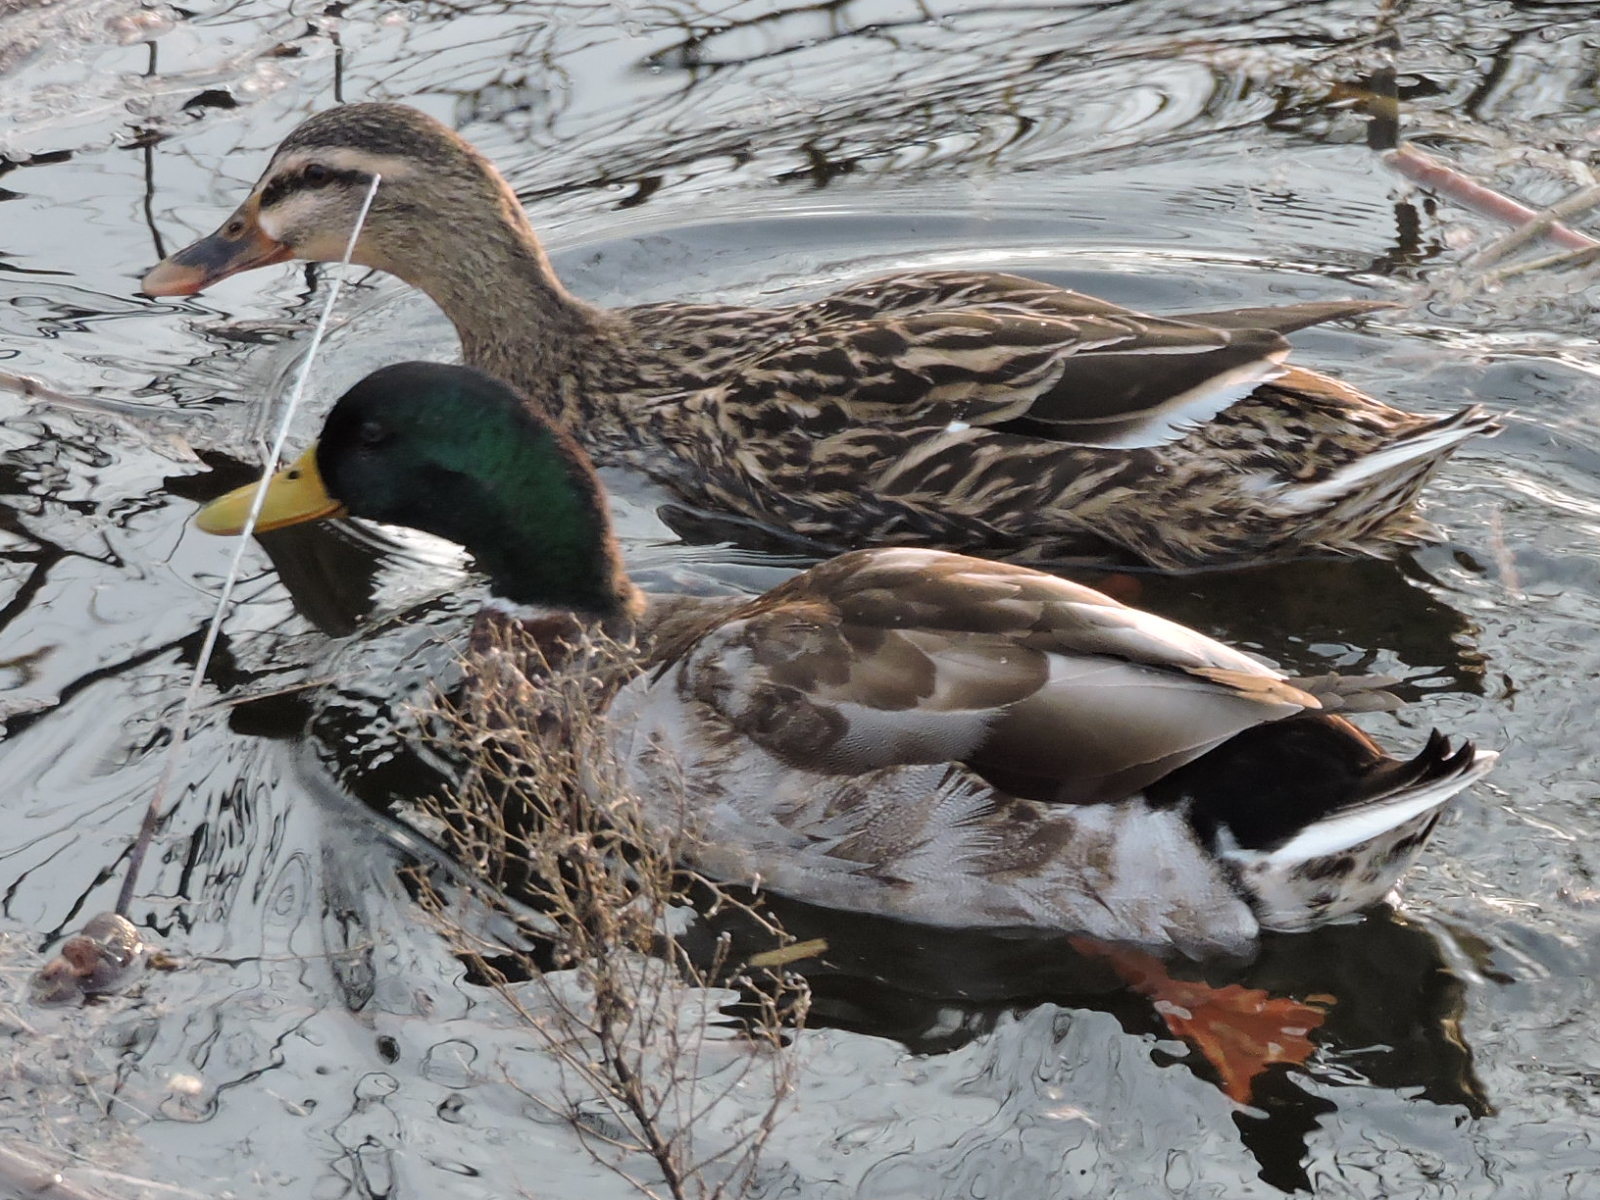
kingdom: Animalia
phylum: Chordata
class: Aves
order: Anseriformes
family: Anatidae
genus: Anas
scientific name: Anas platyrhynchos
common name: Mallard
